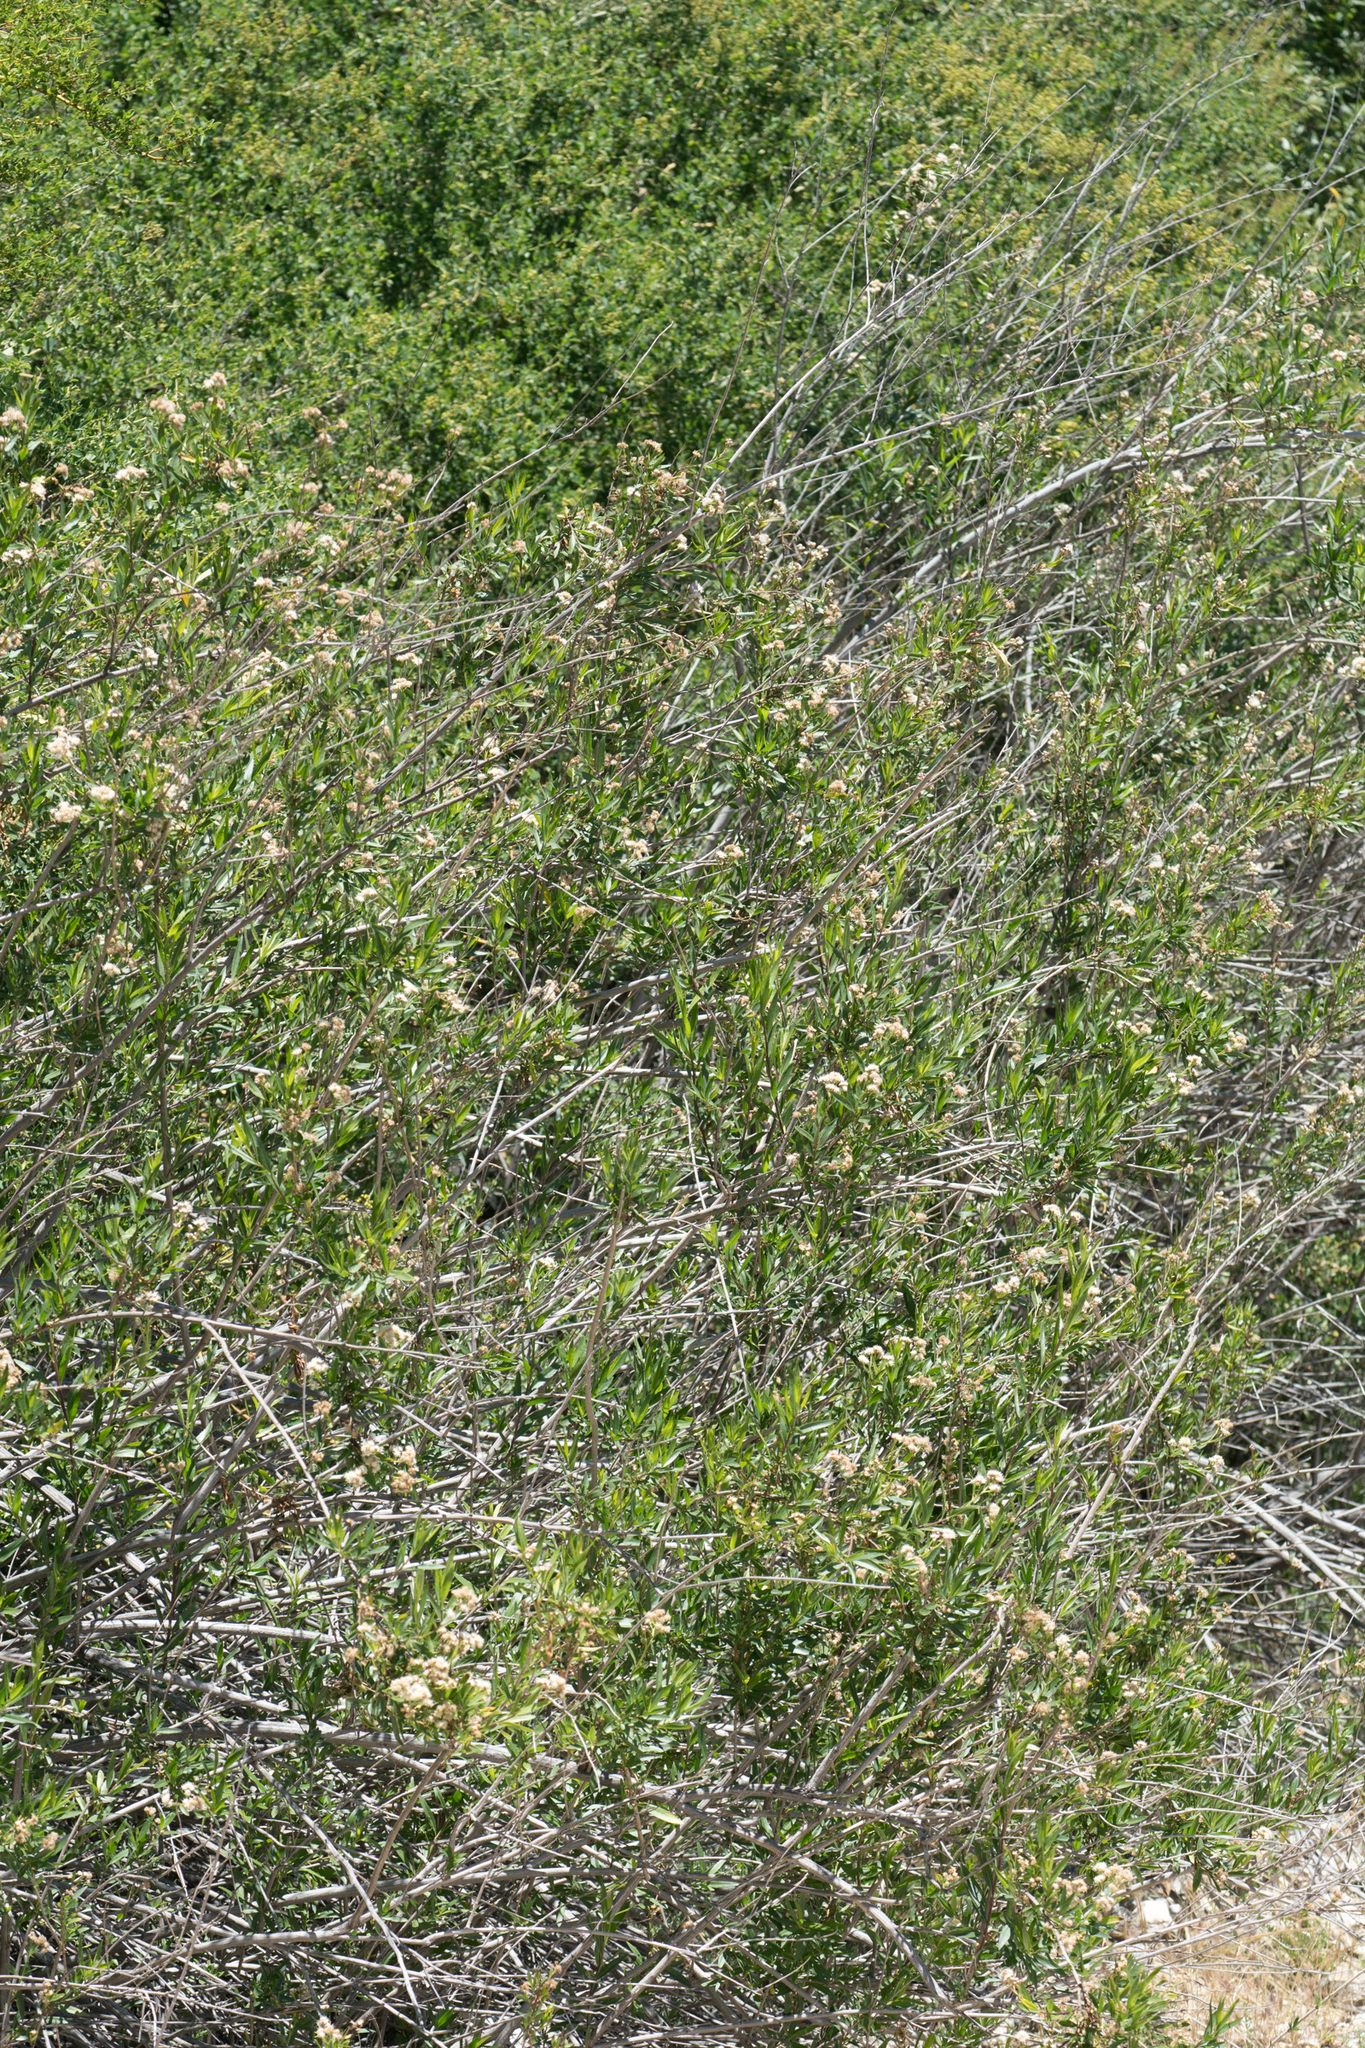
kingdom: Plantae
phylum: Tracheophyta
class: Magnoliopsida
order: Asterales
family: Asteraceae
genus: Baccharis
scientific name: Baccharis salicifolia
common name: Sticky baccharis
